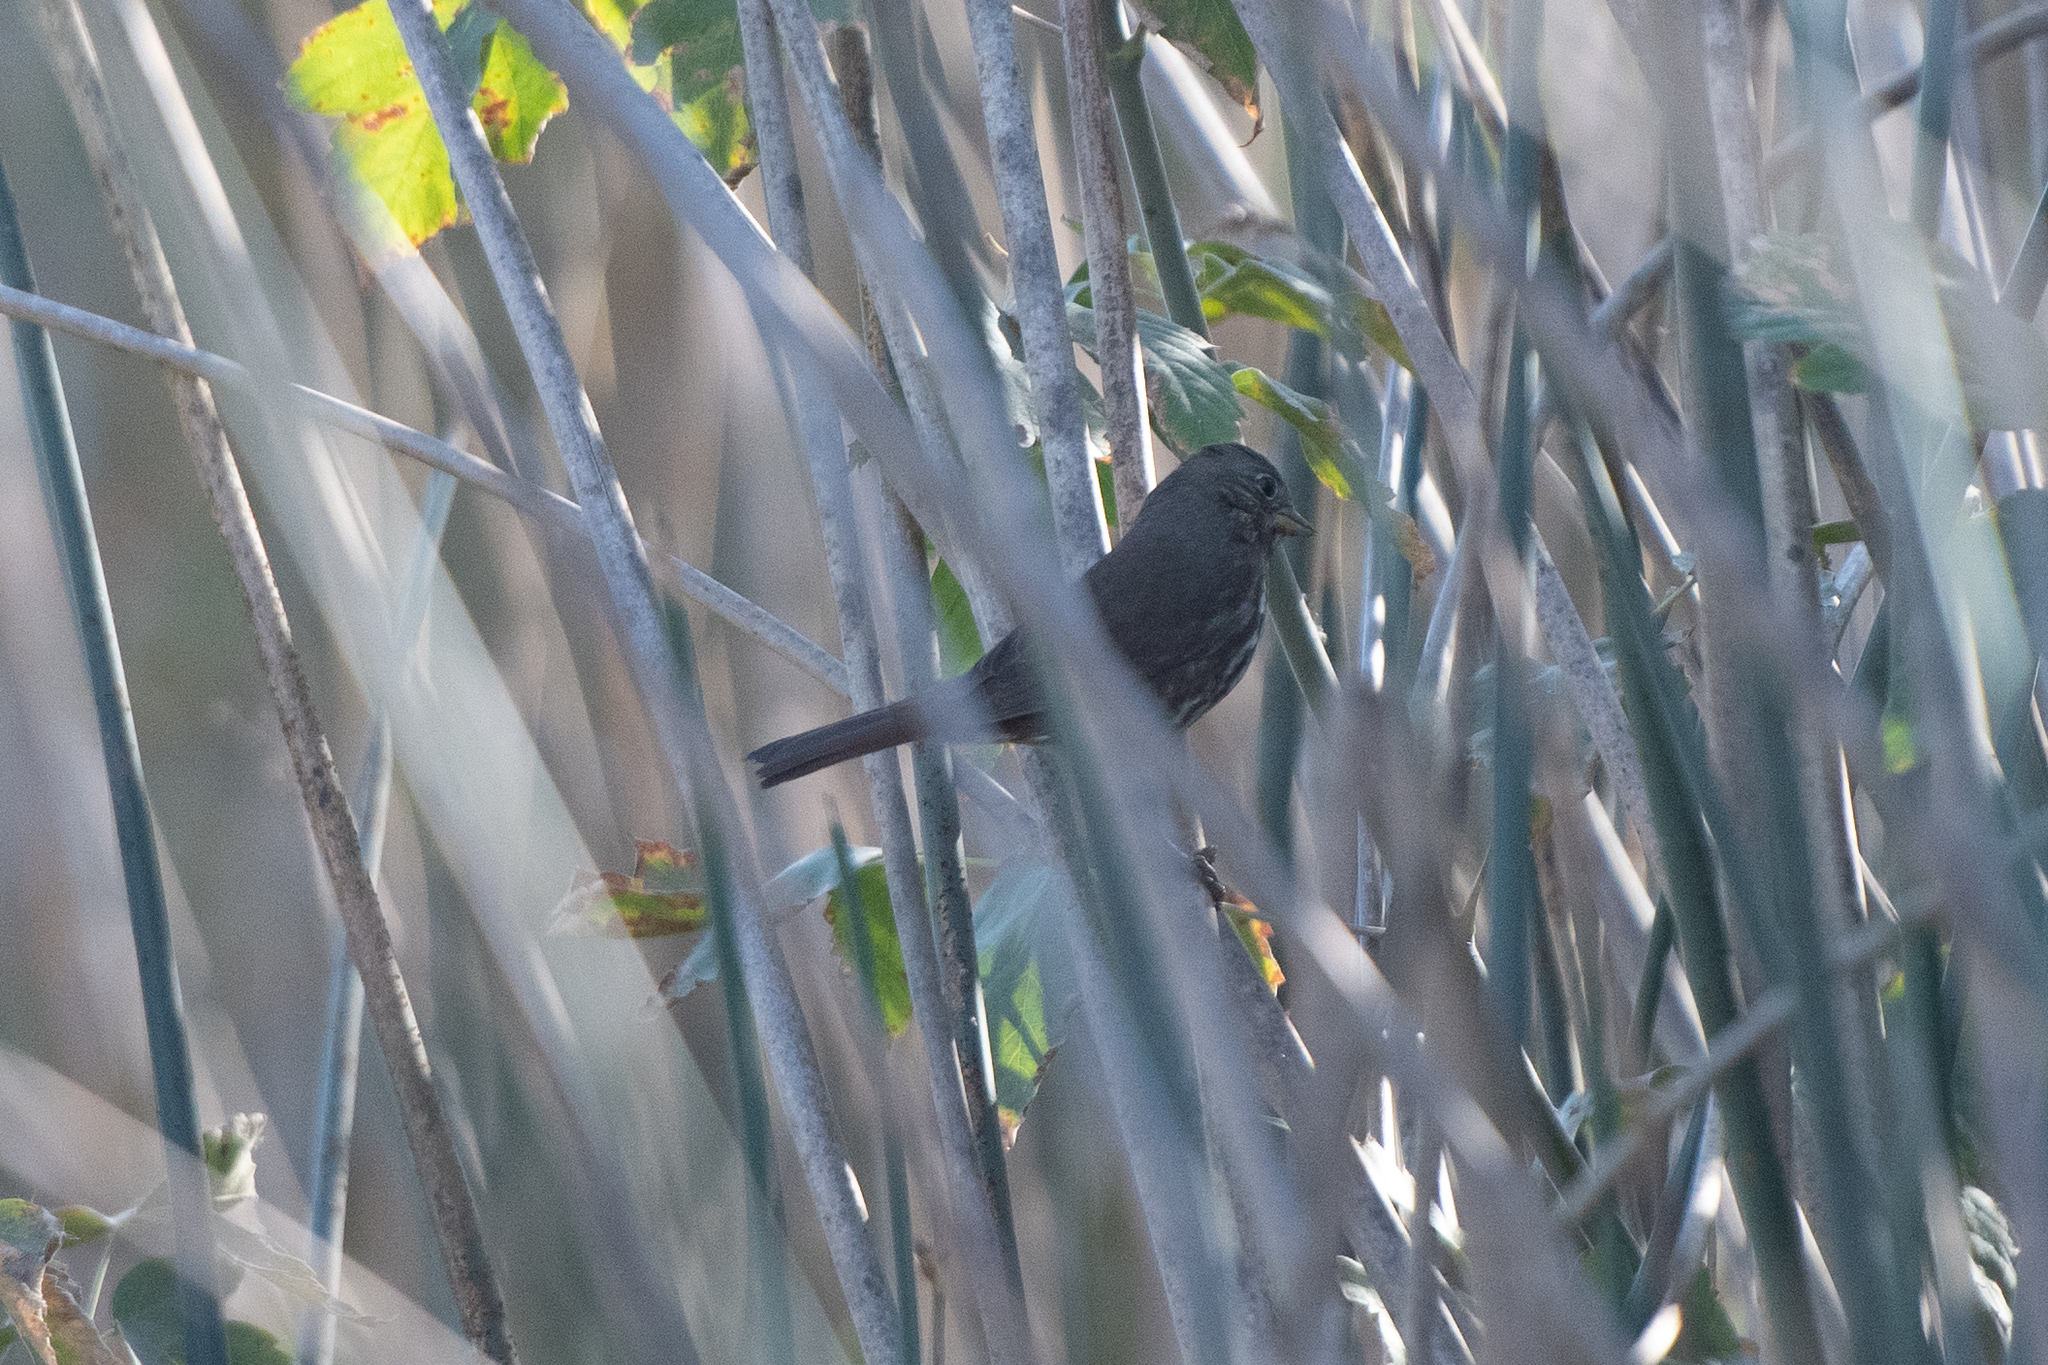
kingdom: Animalia
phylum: Chordata
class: Aves
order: Passeriformes
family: Passerellidae
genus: Passerella
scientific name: Passerella iliaca
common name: Fox sparrow
